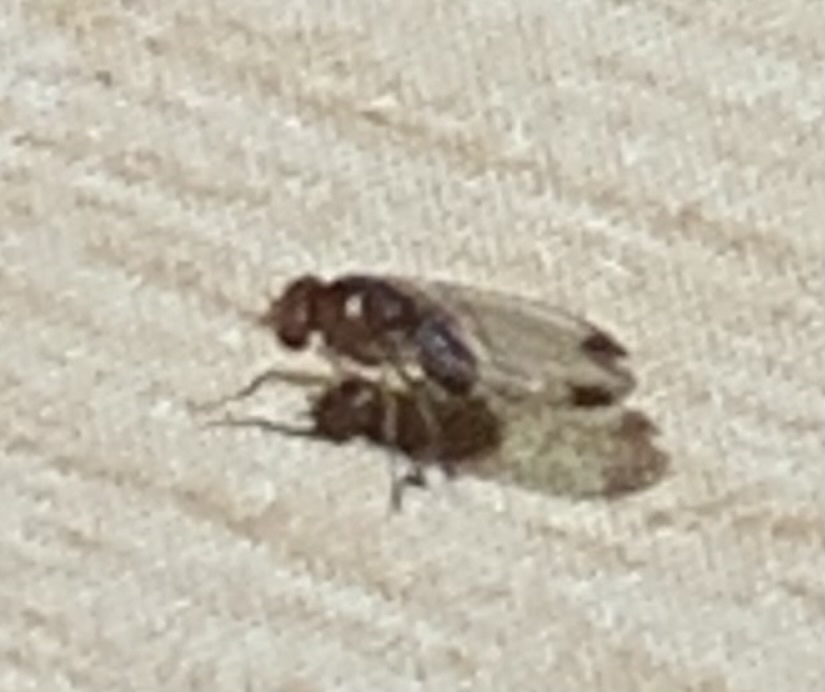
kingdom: Animalia
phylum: Arthropoda
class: Insecta
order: Diptera
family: Drosophilidae
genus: Drosophila
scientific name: Drosophila suzukii
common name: Spotted-wing drosophila
